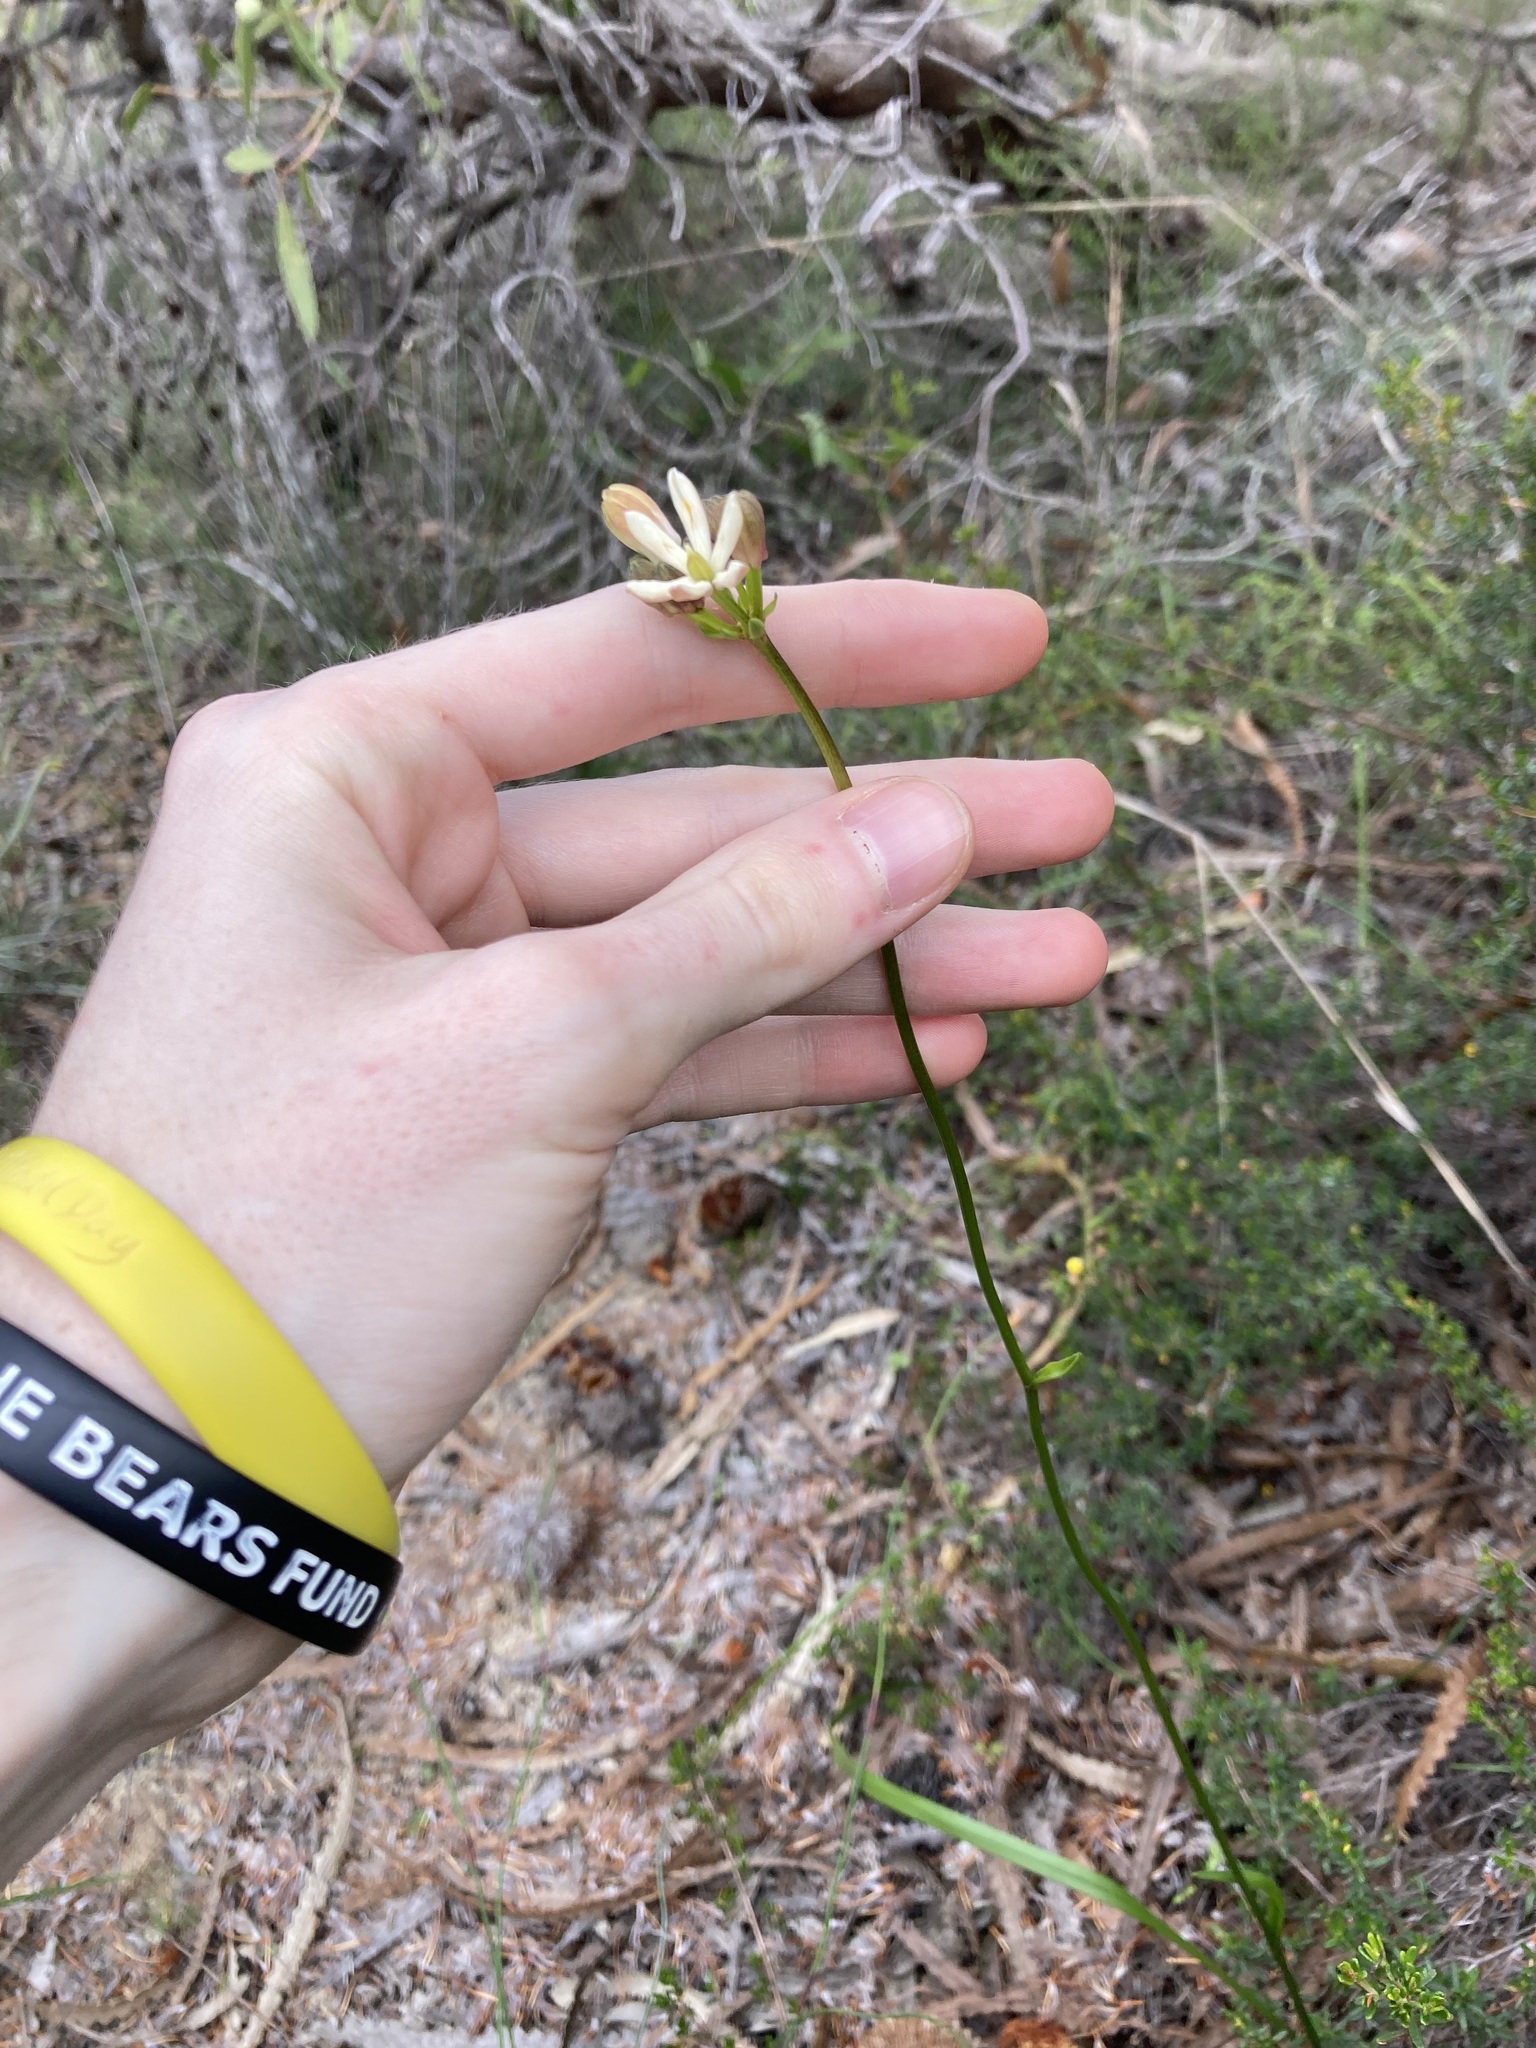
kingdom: Plantae
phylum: Tracheophyta
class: Liliopsida
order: Liliales
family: Colchicaceae
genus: Burchardia
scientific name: Burchardia congesta
